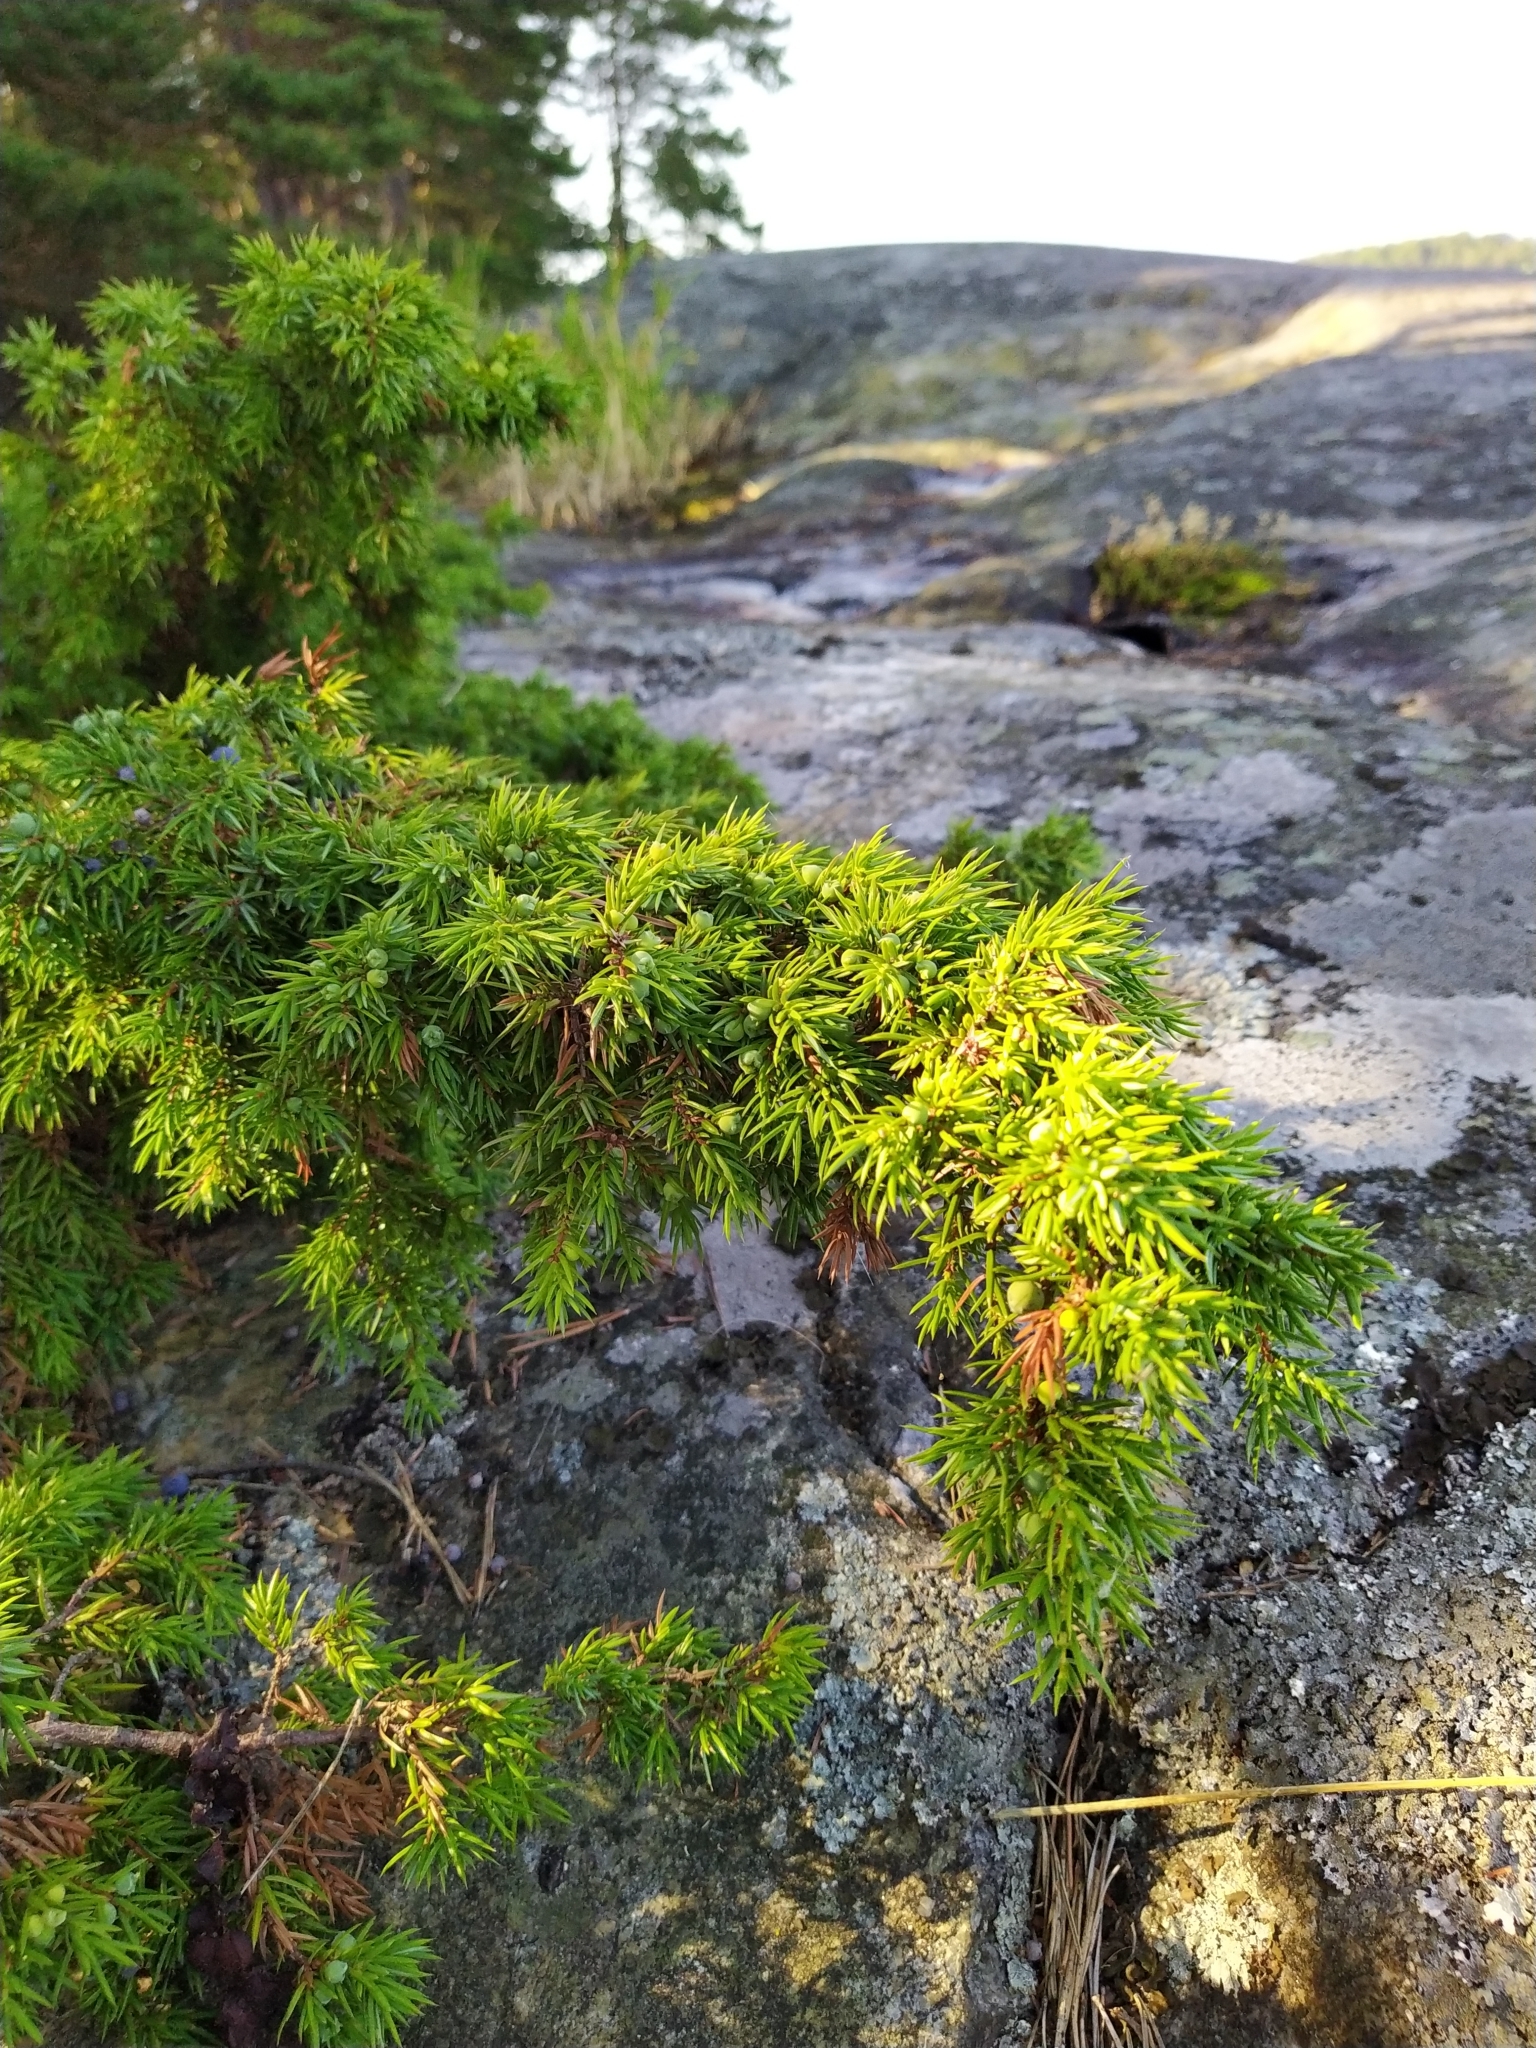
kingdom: Plantae
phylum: Tracheophyta
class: Pinopsida
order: Pinales
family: Cupressaceae
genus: Juniperus
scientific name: Juniperus communis
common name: Common juniper
